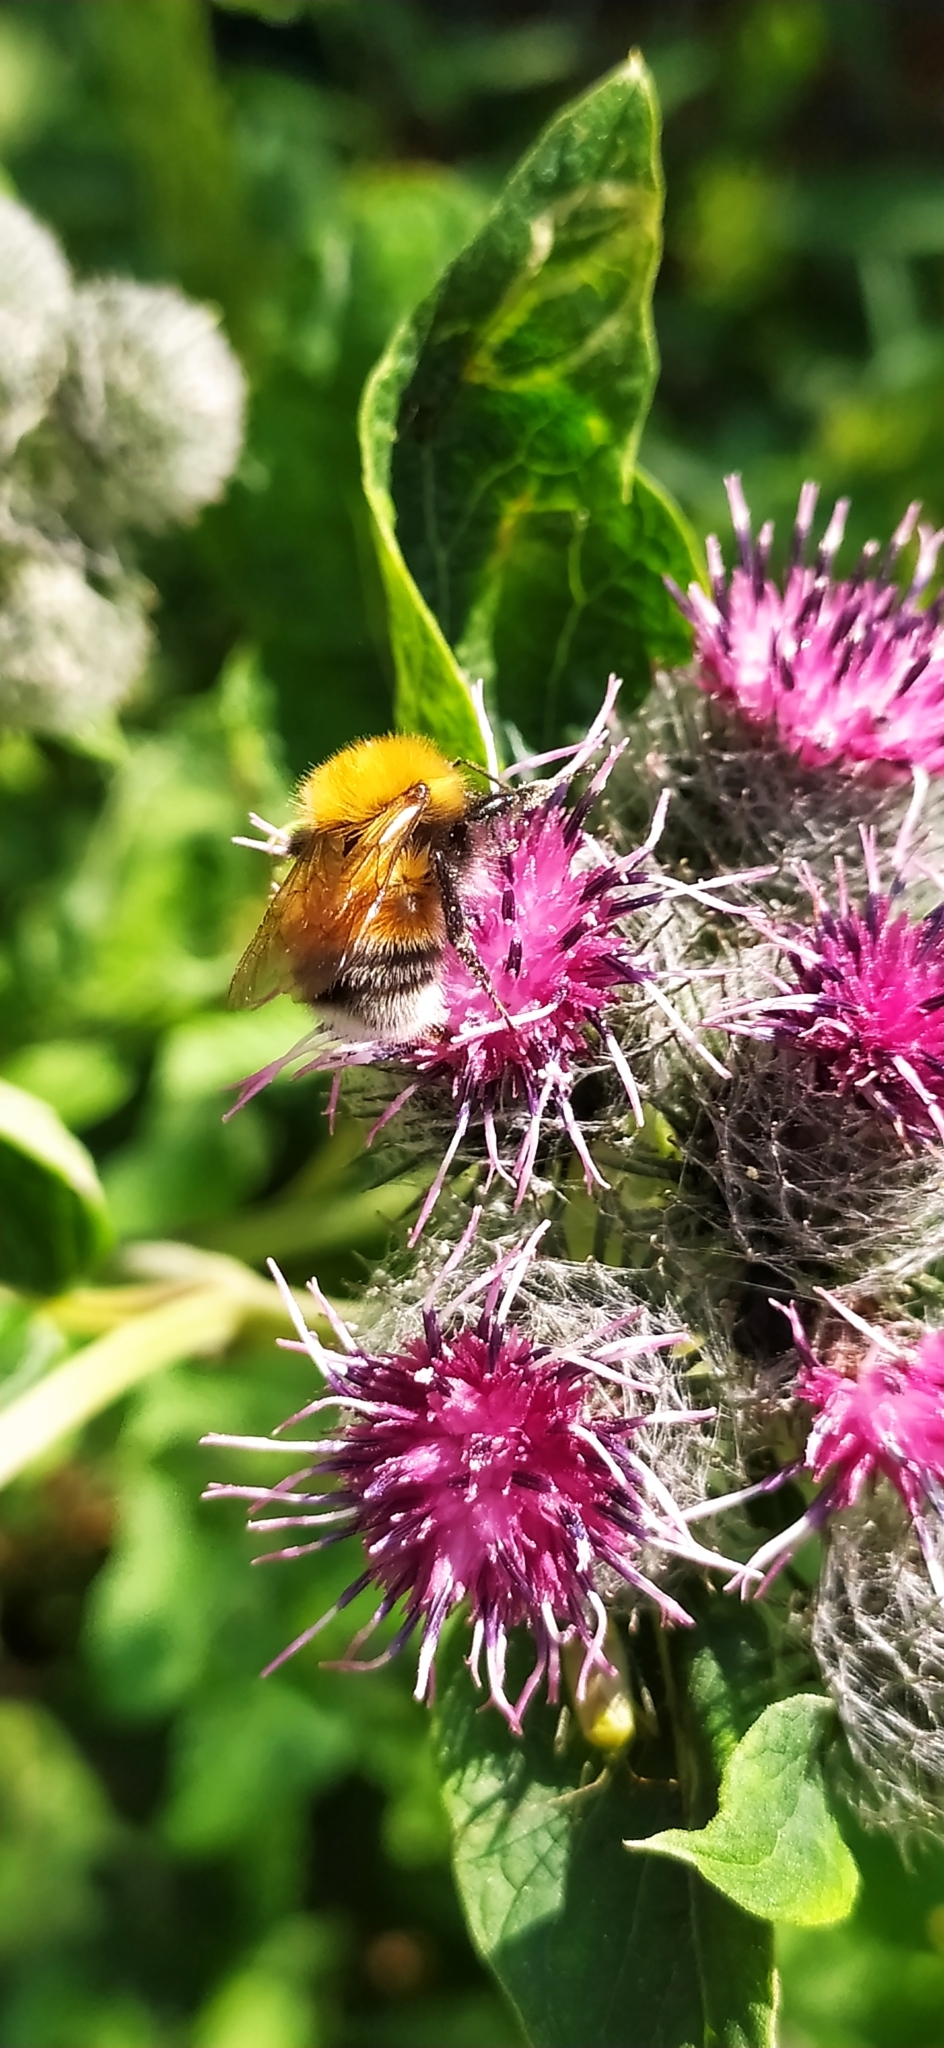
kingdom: Animalia
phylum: Arthropoda
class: Insecta
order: Hymenoptera
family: Apidae
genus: Bombus
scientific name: Bombus hypnorum
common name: New garden bumblebee
